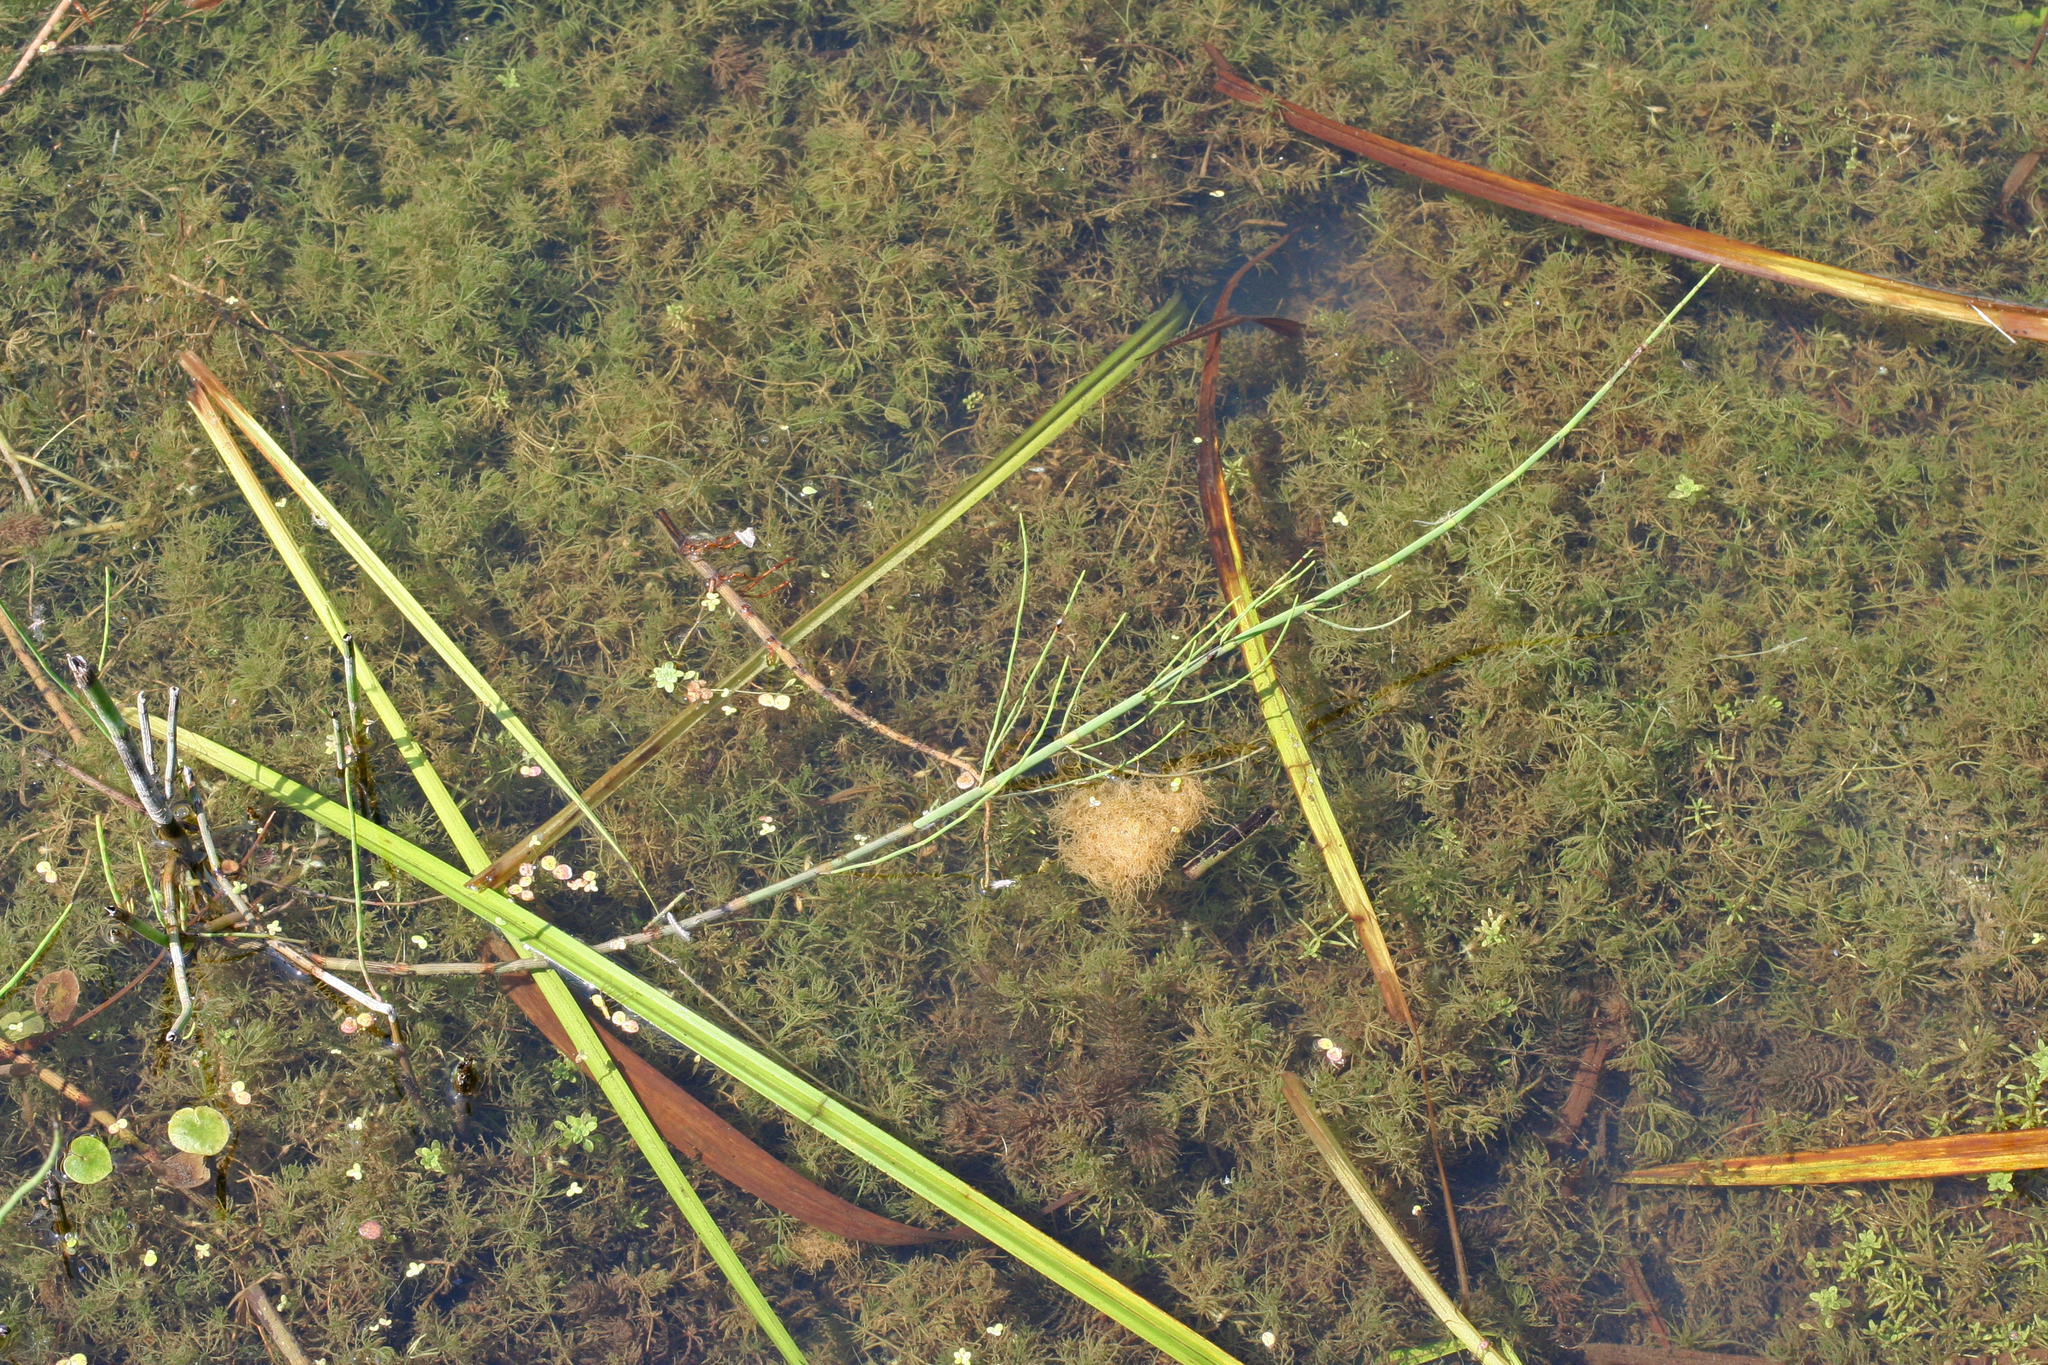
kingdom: Plantae
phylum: Tracheophyta
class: Polypodiopsida
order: Equisetales
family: Equisetaceae
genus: Equisetum
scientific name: Equisetum fluviatile
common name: Water horsetail
